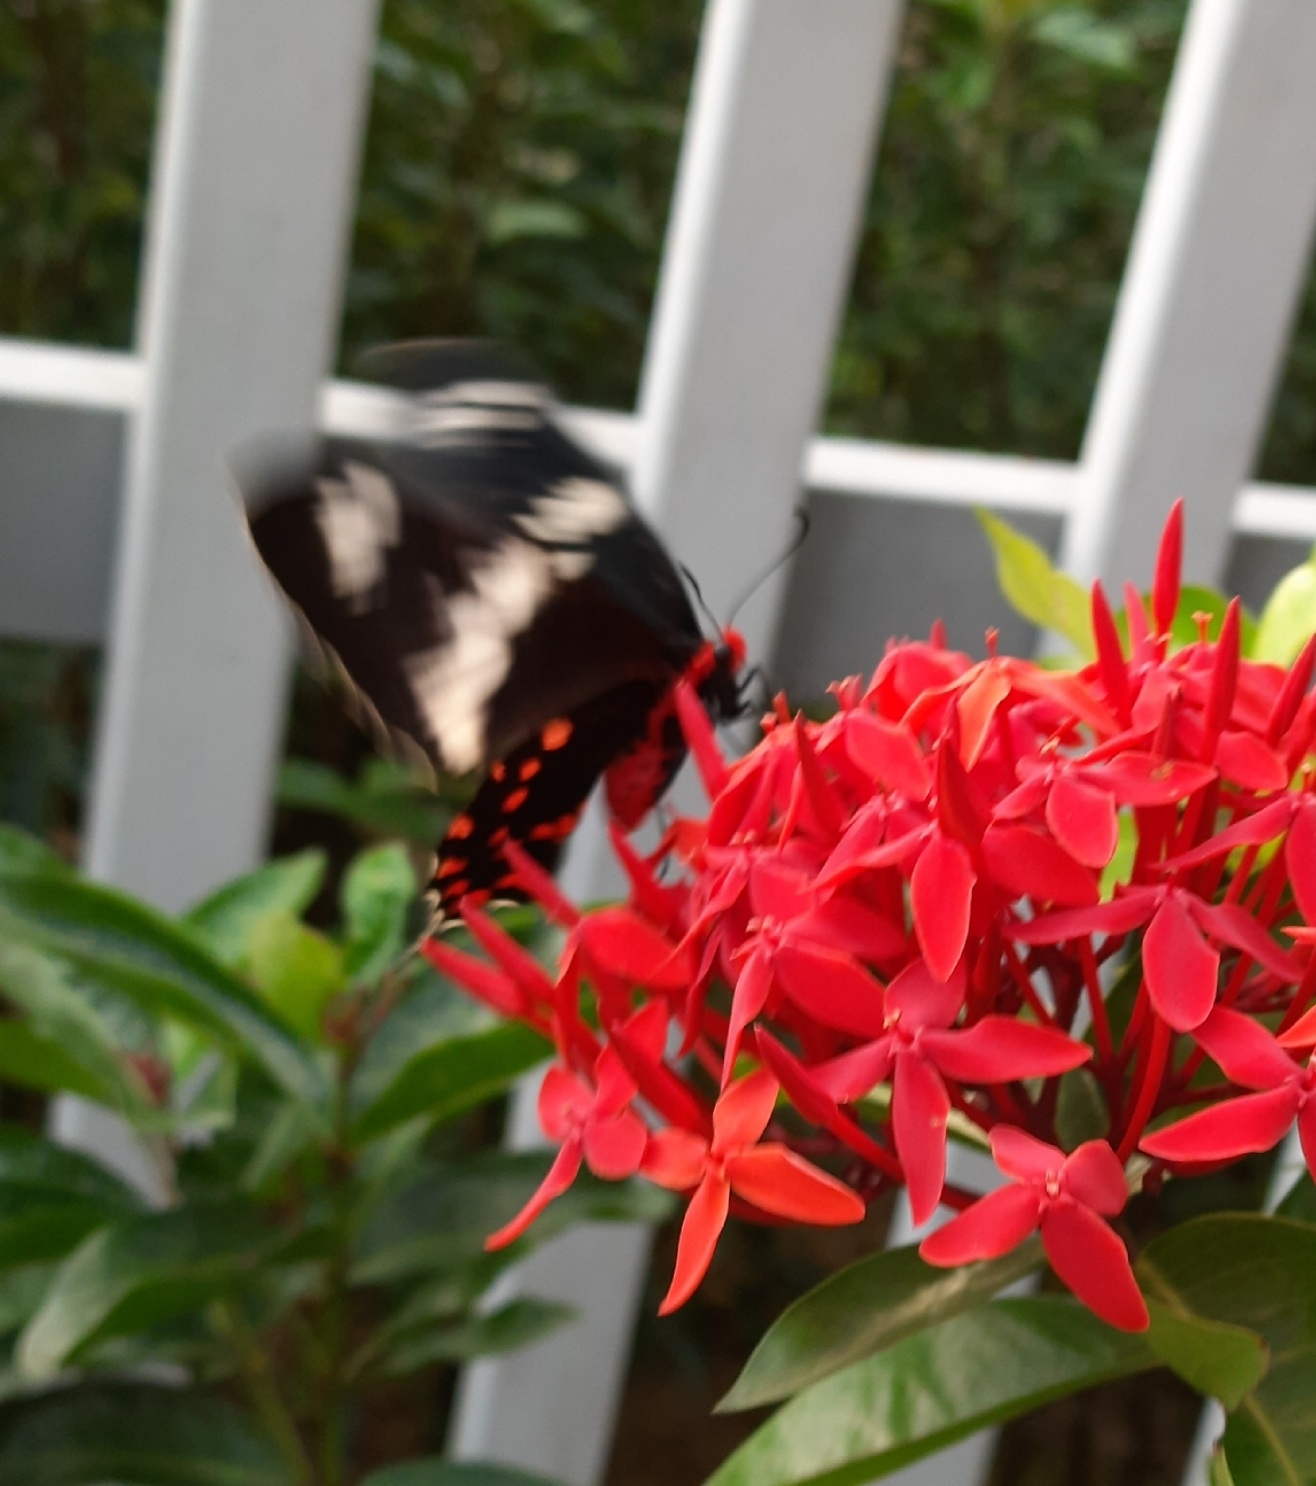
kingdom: Animalia
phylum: Arthropoda
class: Insecta
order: Lepidoptera
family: Papilionidae
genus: Pachliopta
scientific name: Pachliopta hector
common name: Crimson rose
